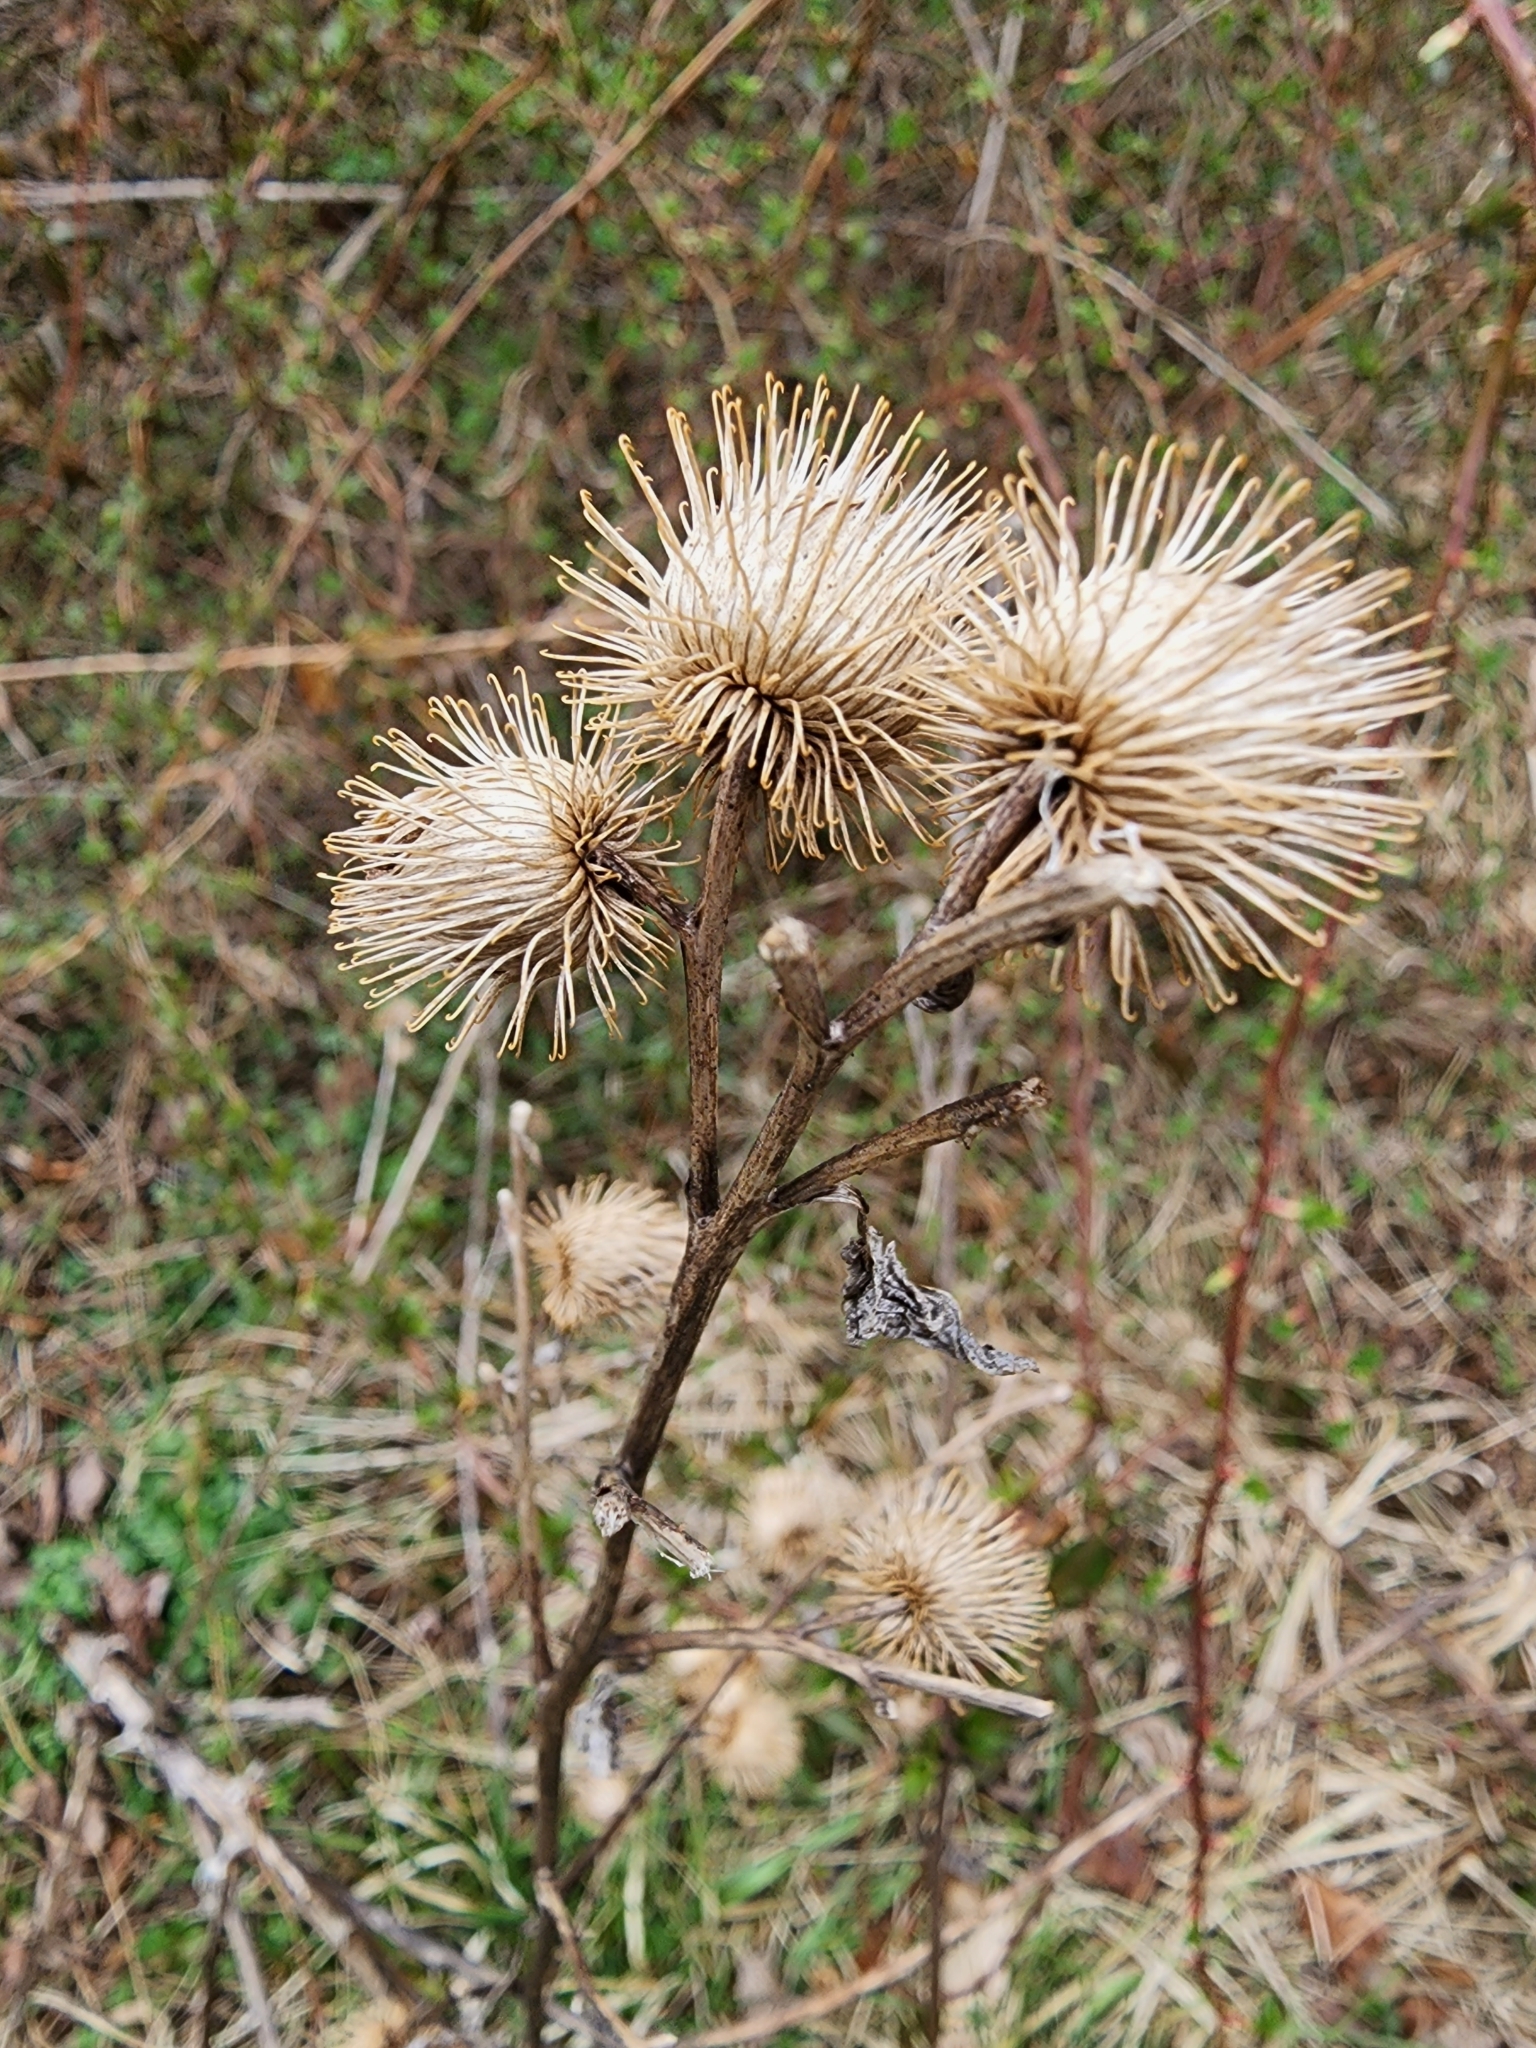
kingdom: Plantae
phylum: Tracheophyta
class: Magnoliopsida
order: Asterales
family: Asteraceae
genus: Arctium
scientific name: Arctium minus
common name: Lesser burdock
